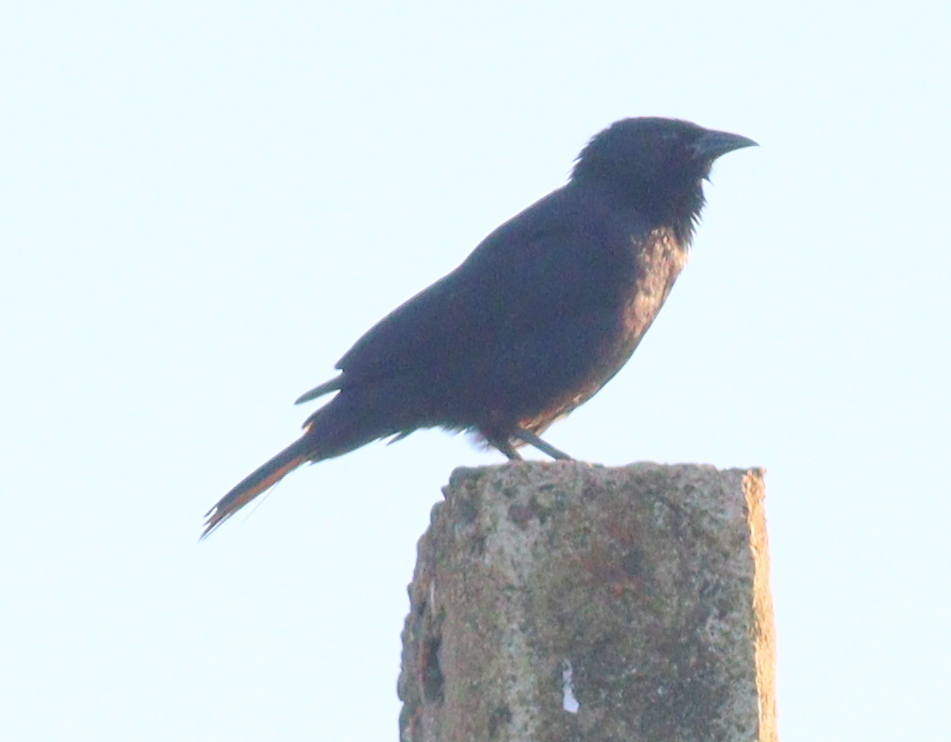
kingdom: Animalia
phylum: Chordata
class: Aves
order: Passeriformes
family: Icteridae
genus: Gnorimopsar
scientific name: Gnorimopsar chopi
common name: Chopi blackbird
